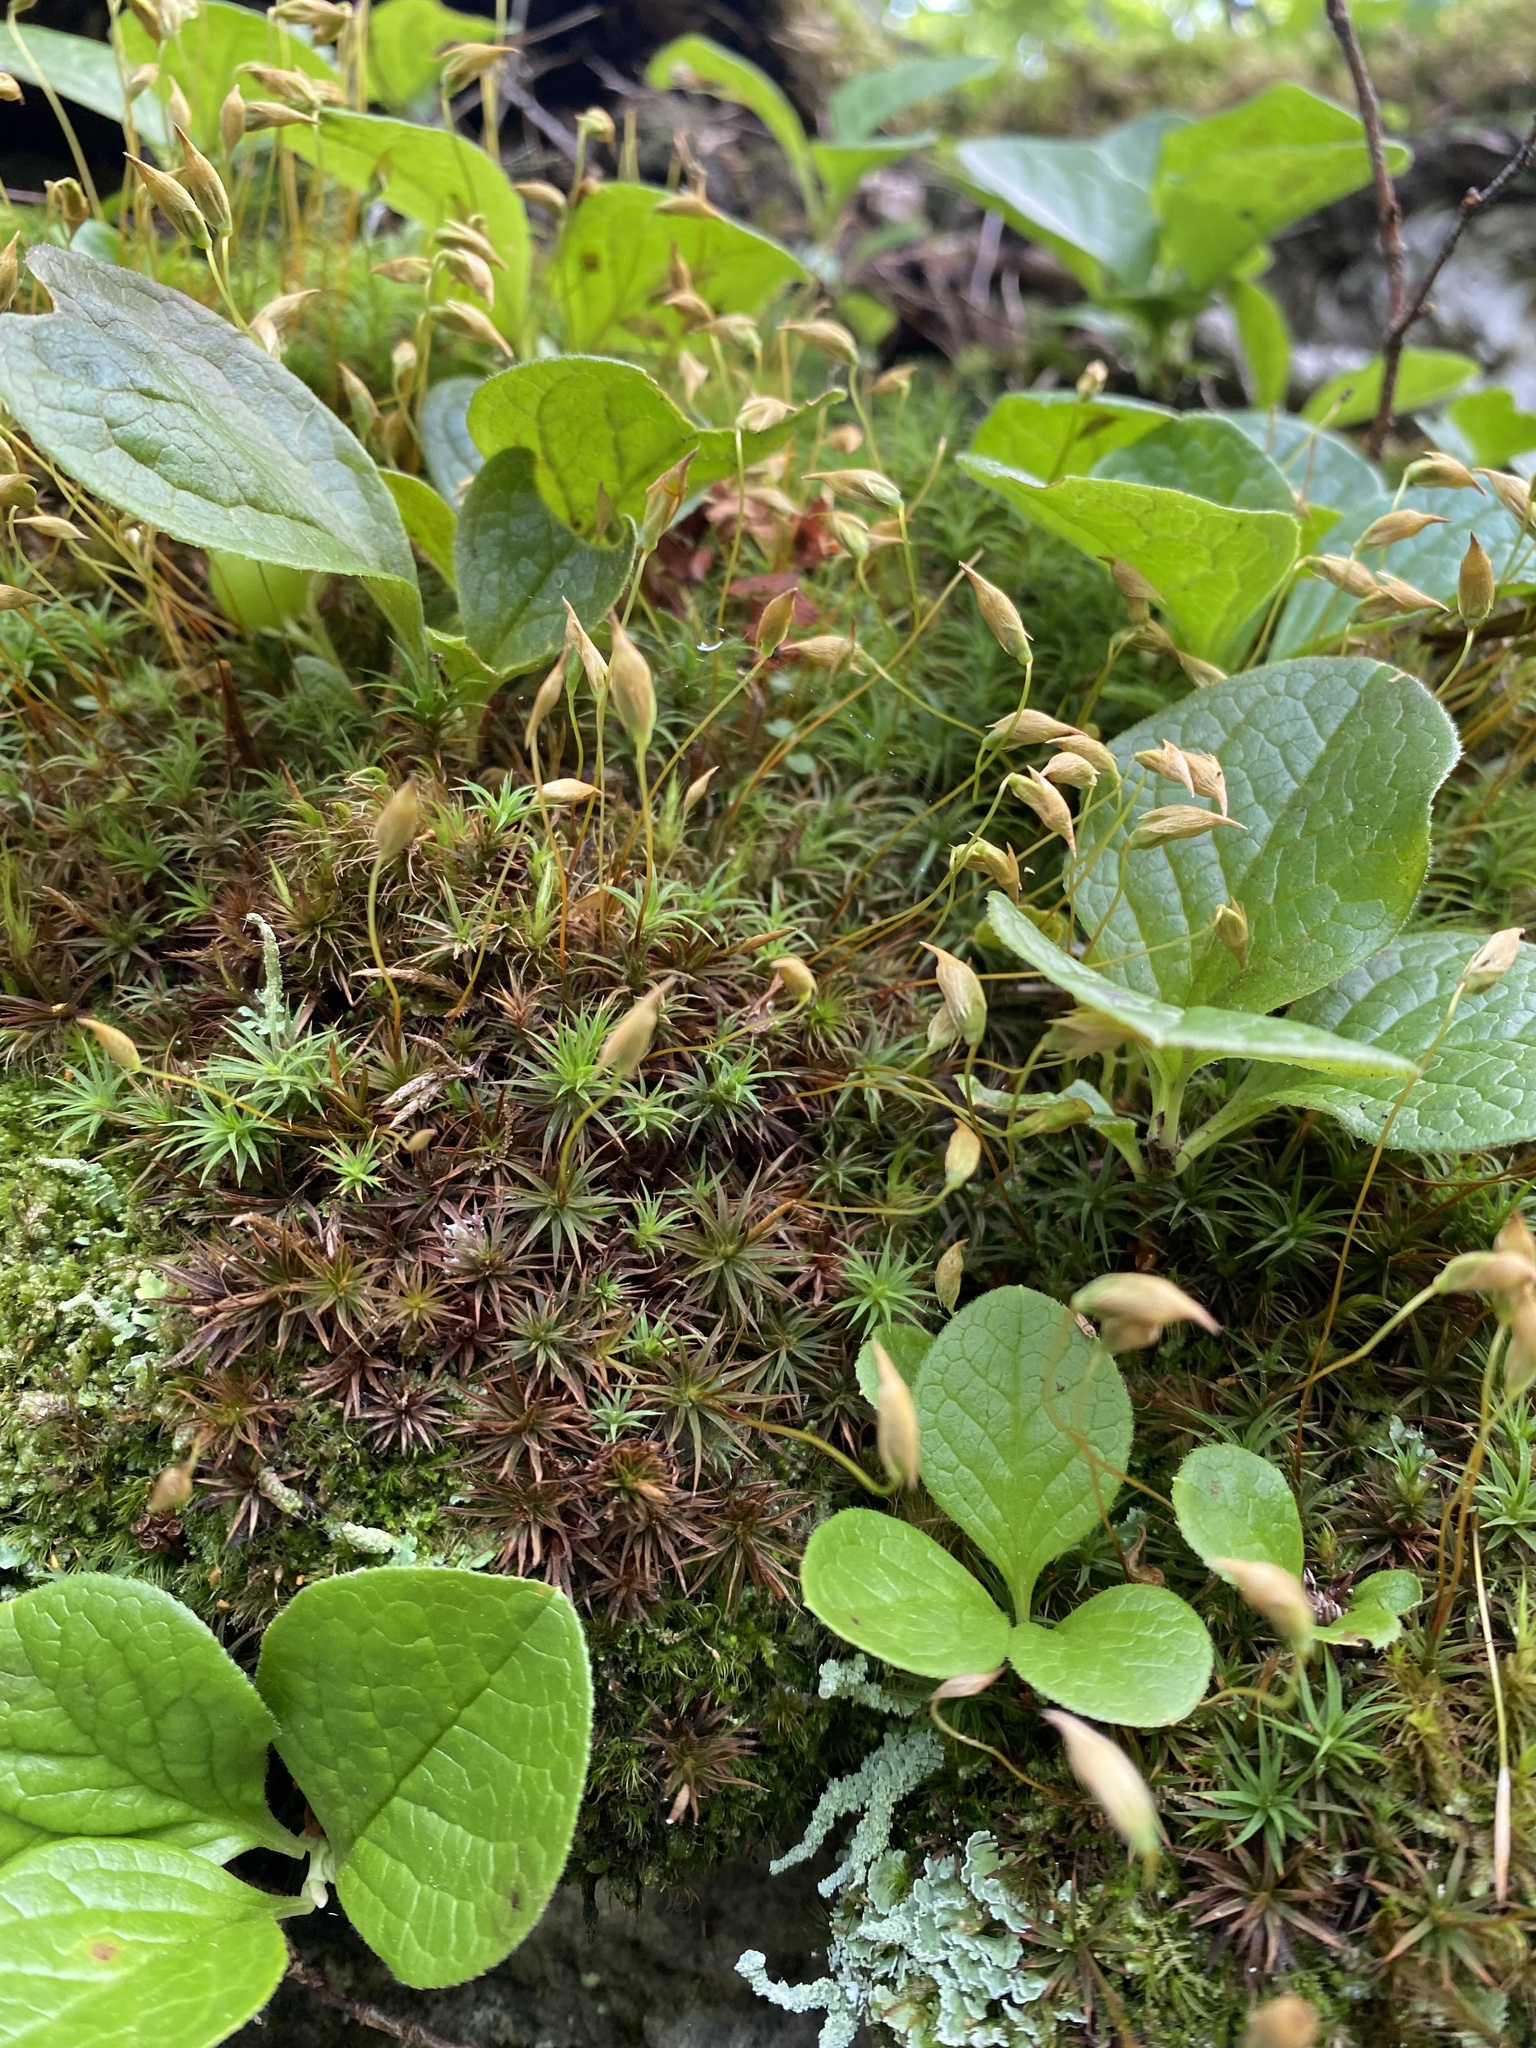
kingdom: Plantae
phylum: Tracheophyta
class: Magnoliopsida
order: Ericales
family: Ericaceae
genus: Vaccinium
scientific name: Vaccinium praestans
